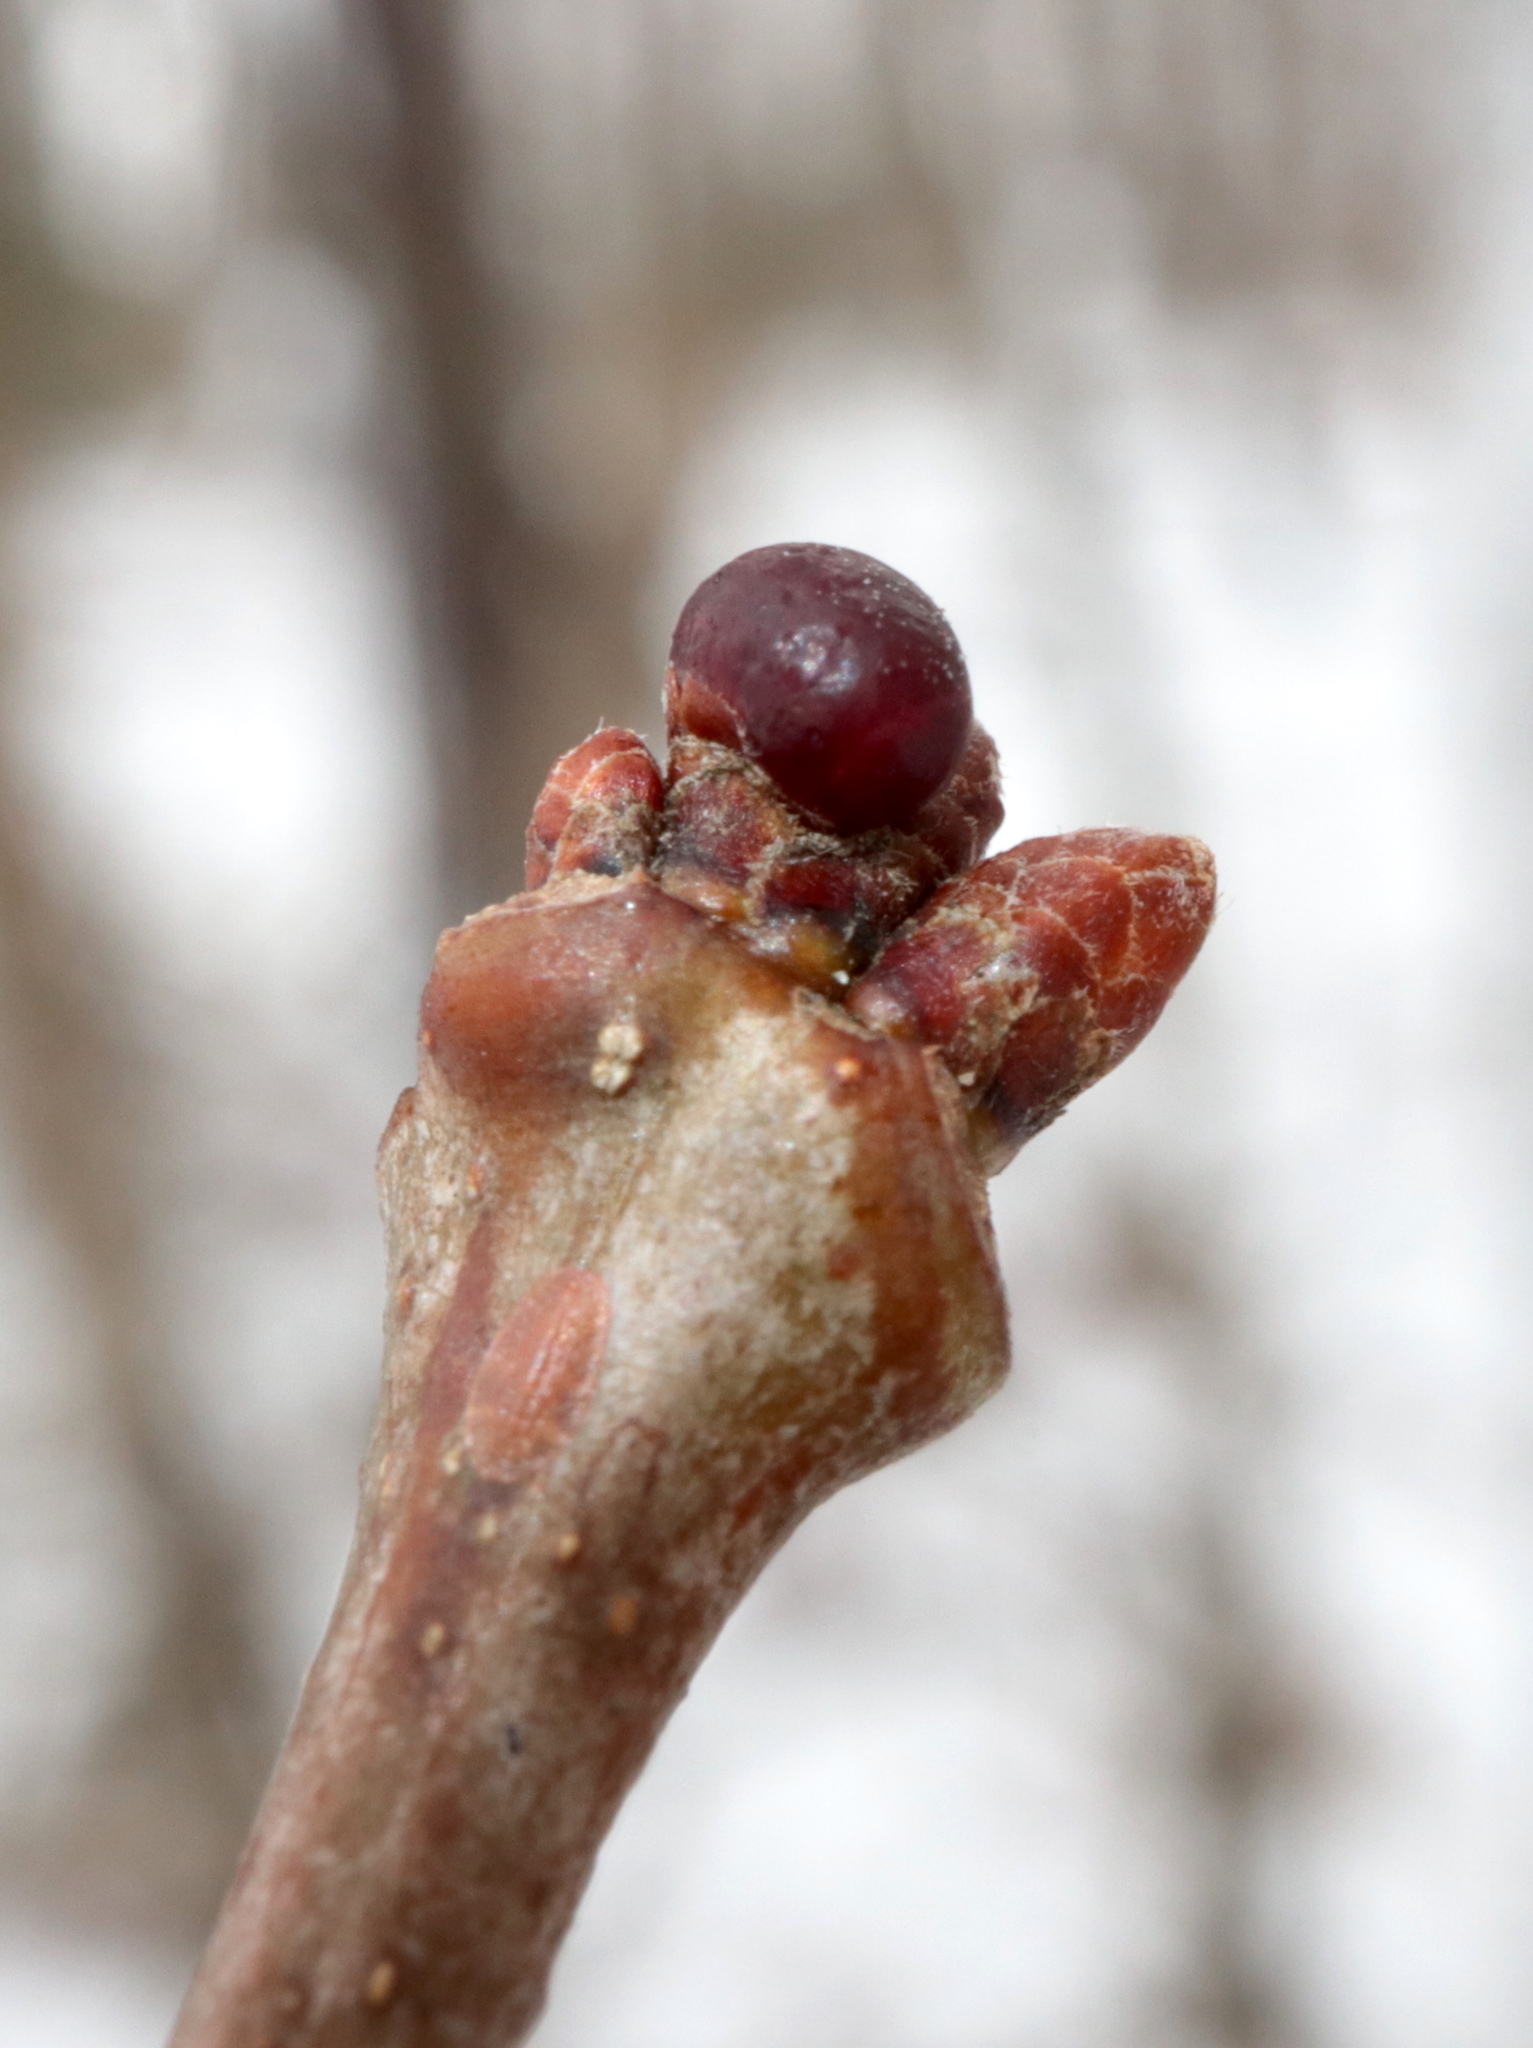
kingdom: Animalia
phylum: Arthropoda
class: Insecta
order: Hymenoptera
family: Cynipidae
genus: Neuroterus
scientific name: Neuroterus
